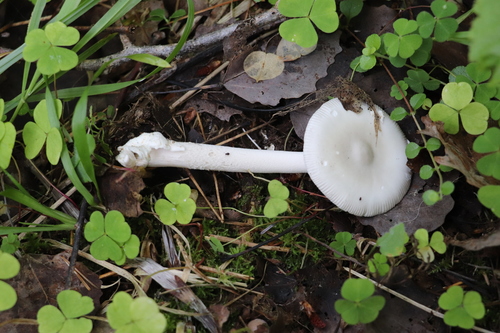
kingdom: Fungi
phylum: Basidiomycota
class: Agaricomycetes
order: Agaricales
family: Amanitaceae
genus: Amanita
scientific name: Amanita vaginata
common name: Grisette
